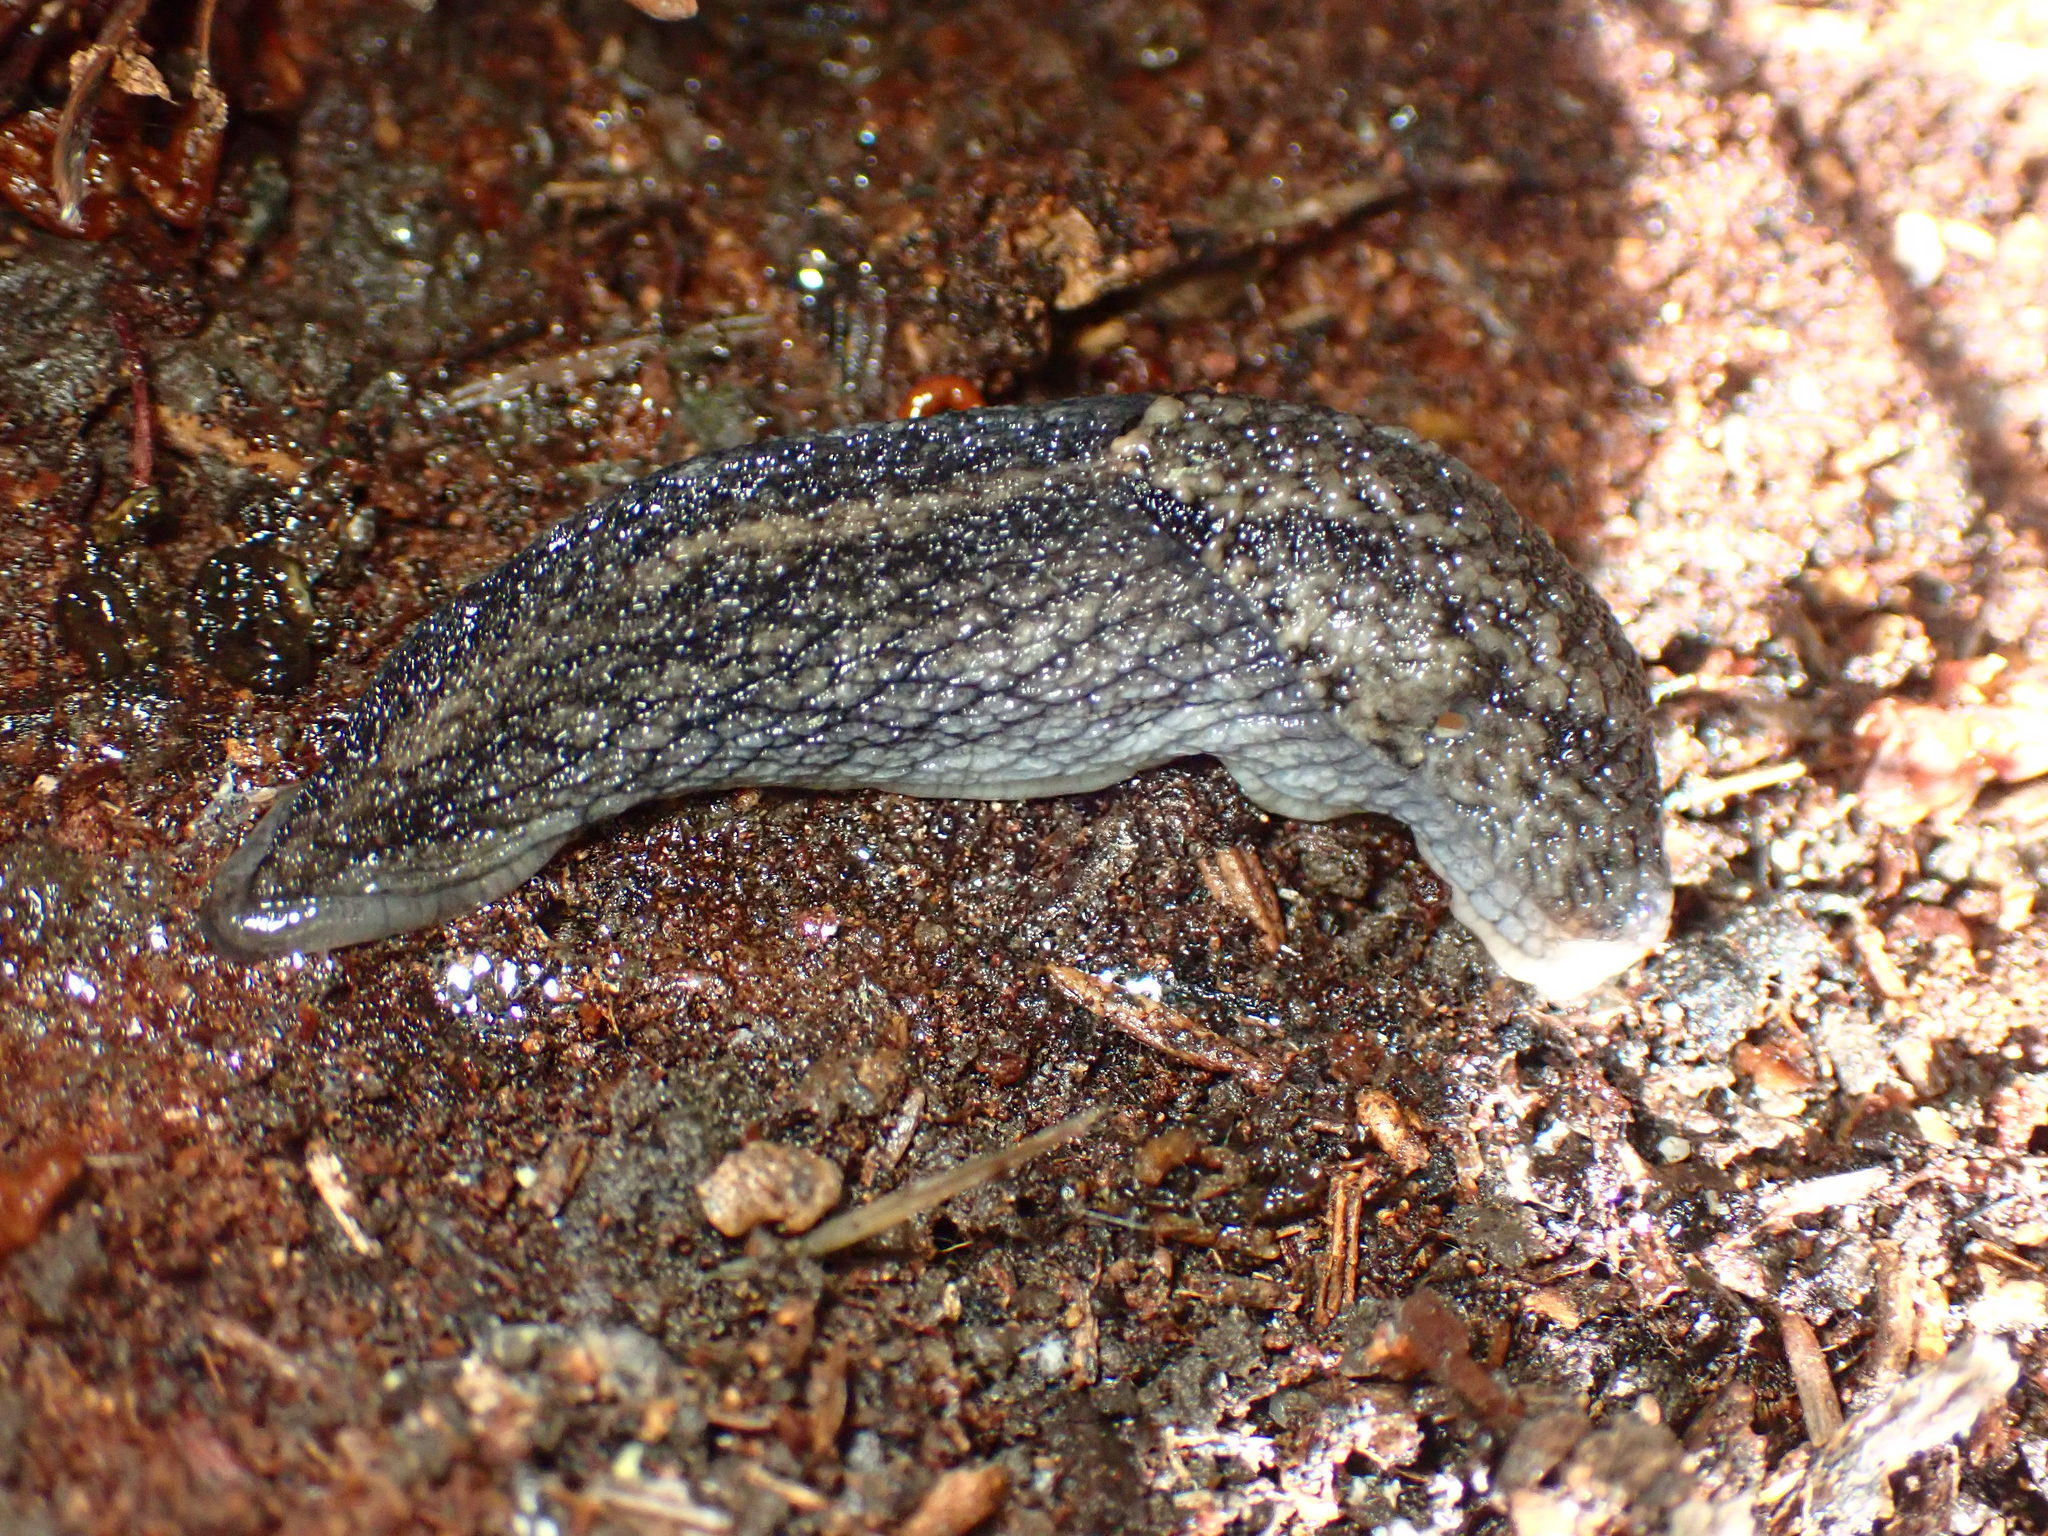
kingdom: Animalia
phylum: Mollusca
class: Gastropoda
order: Stylommatophora
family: Ariolimacidae
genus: Prophysaon
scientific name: Prophysaon andersonii
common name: Reticulate taildropper
